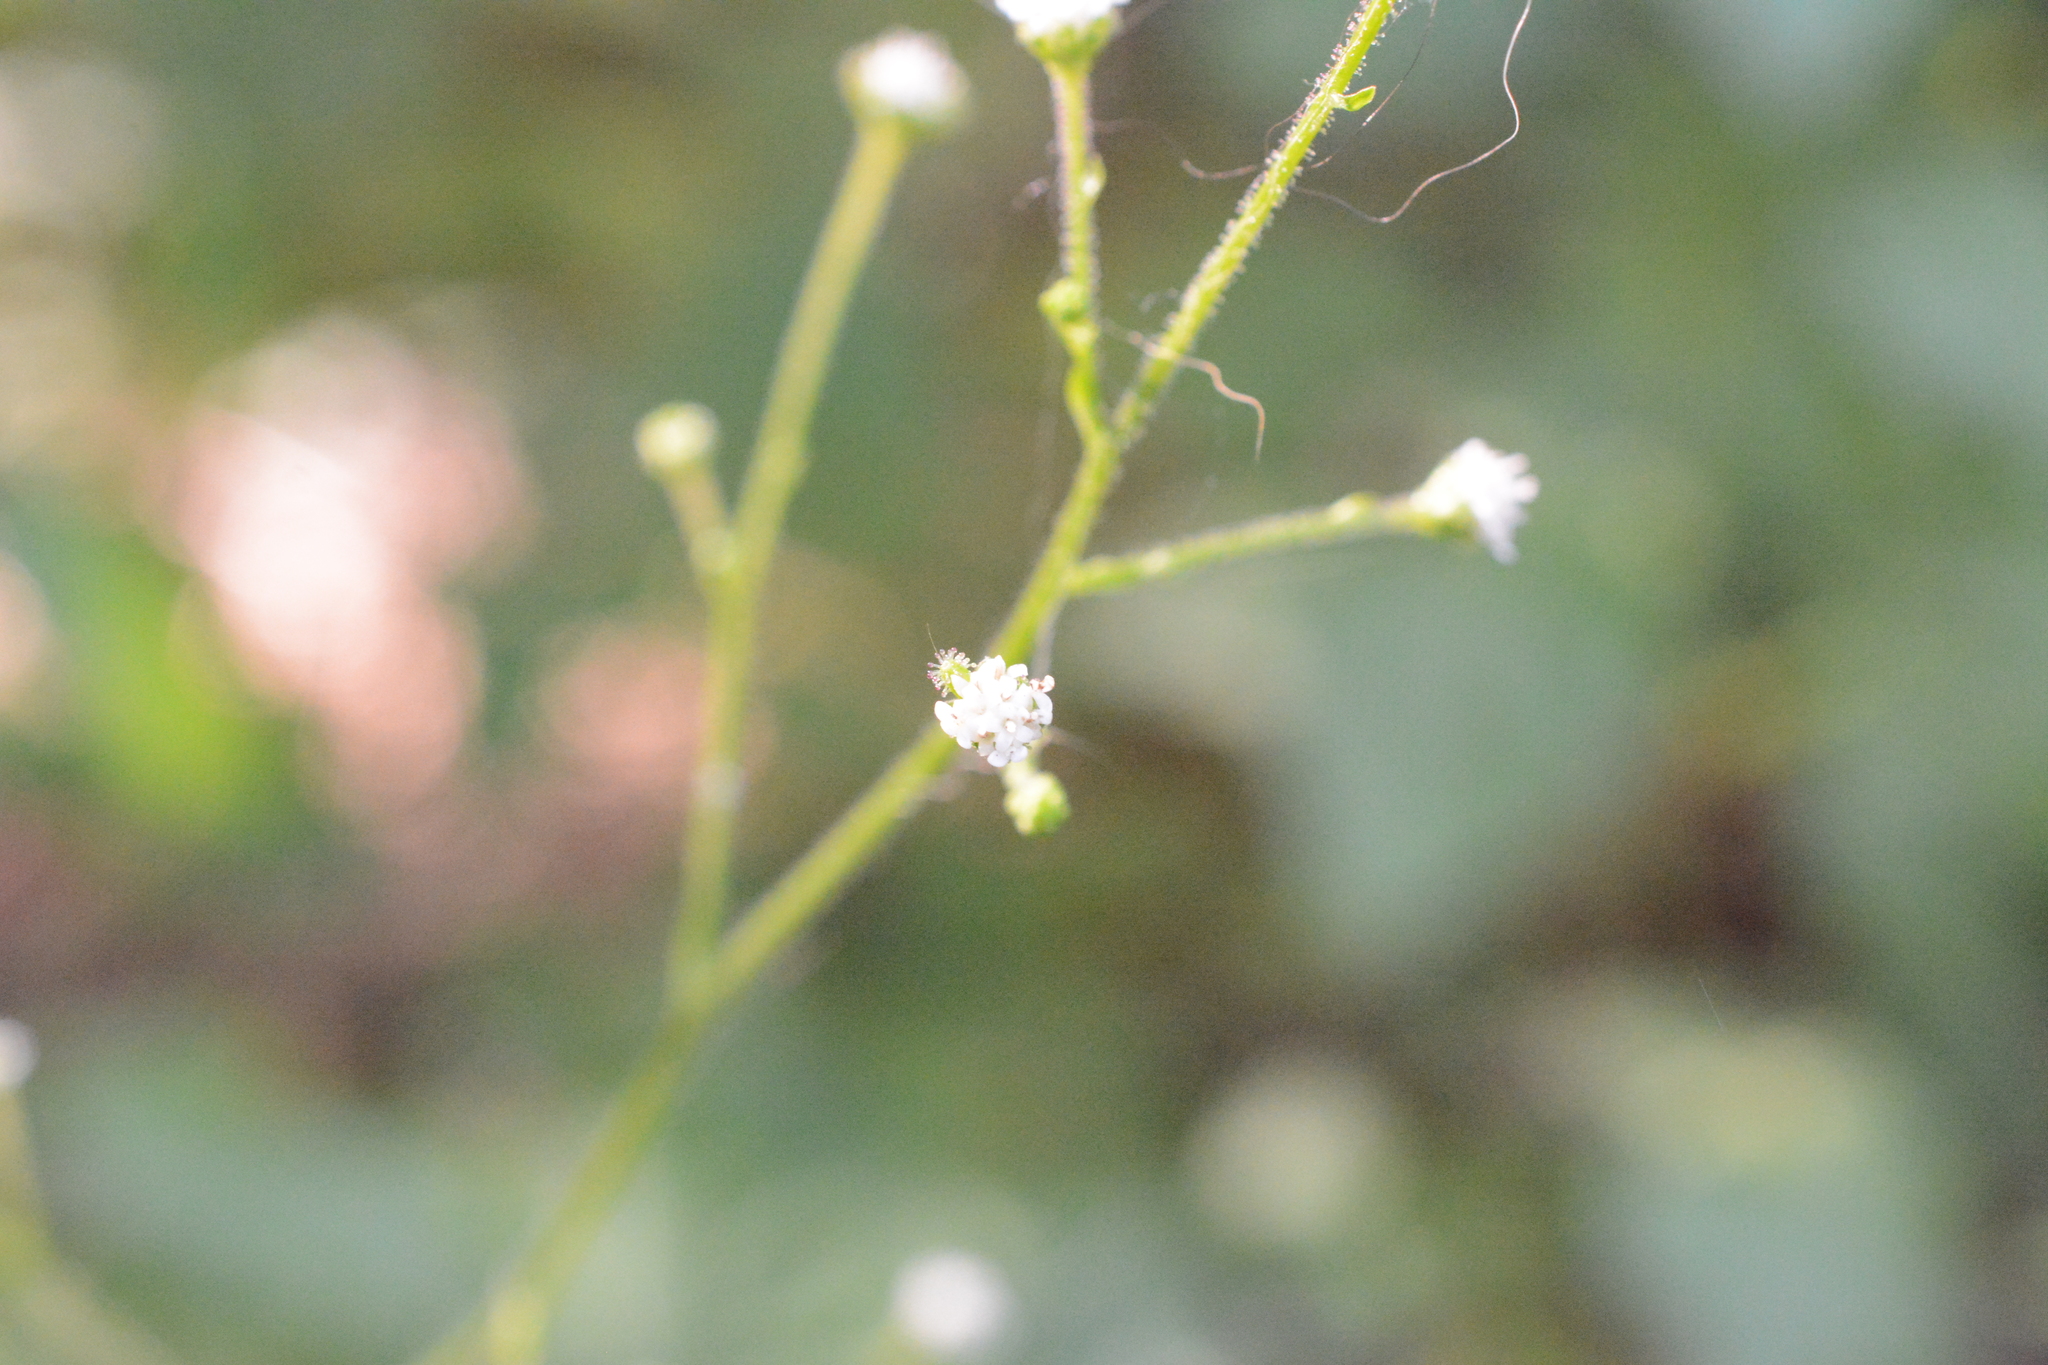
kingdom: Plantae
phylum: Tracheophyta
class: Magnoliopsida
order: Asterales
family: Asteraceae
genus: Adenocaulon
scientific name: Adenocaulon bicolor
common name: Trailplant
